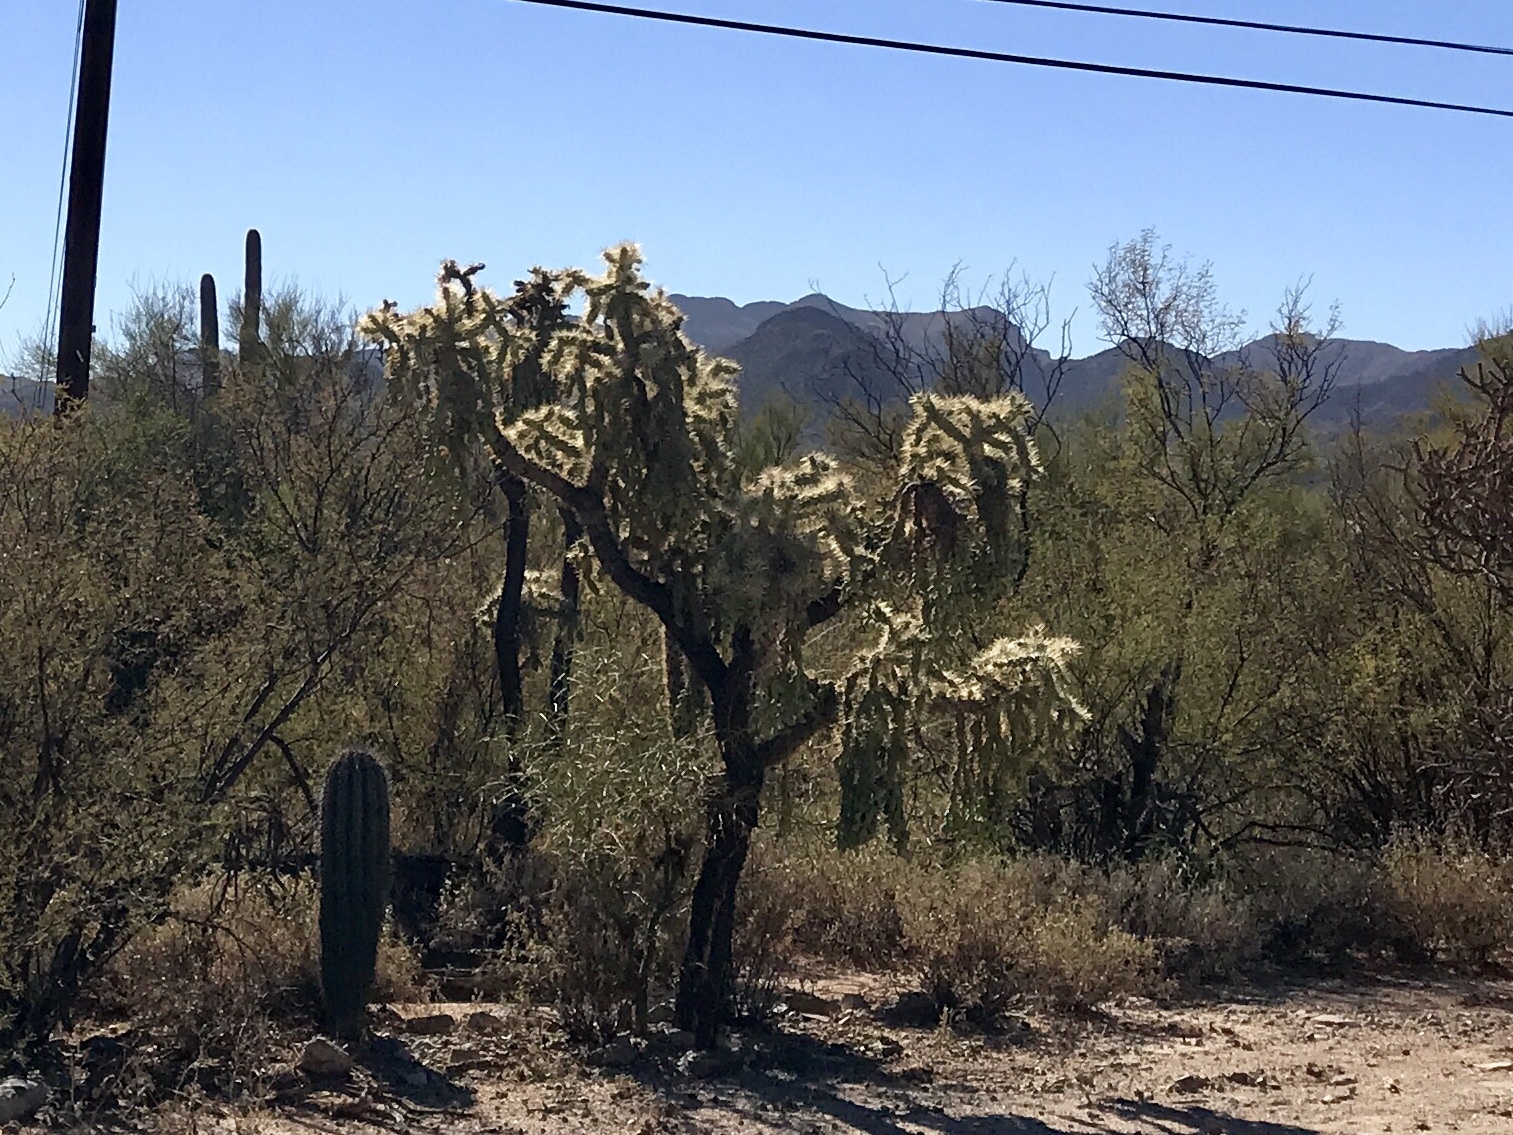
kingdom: Plantae
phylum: Tracheophyta
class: Magnoliopsida
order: Caryophyllales
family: Cactaceae
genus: Cylindropuntia
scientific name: Cylindropuntia fulgida
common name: Jumping cholla
